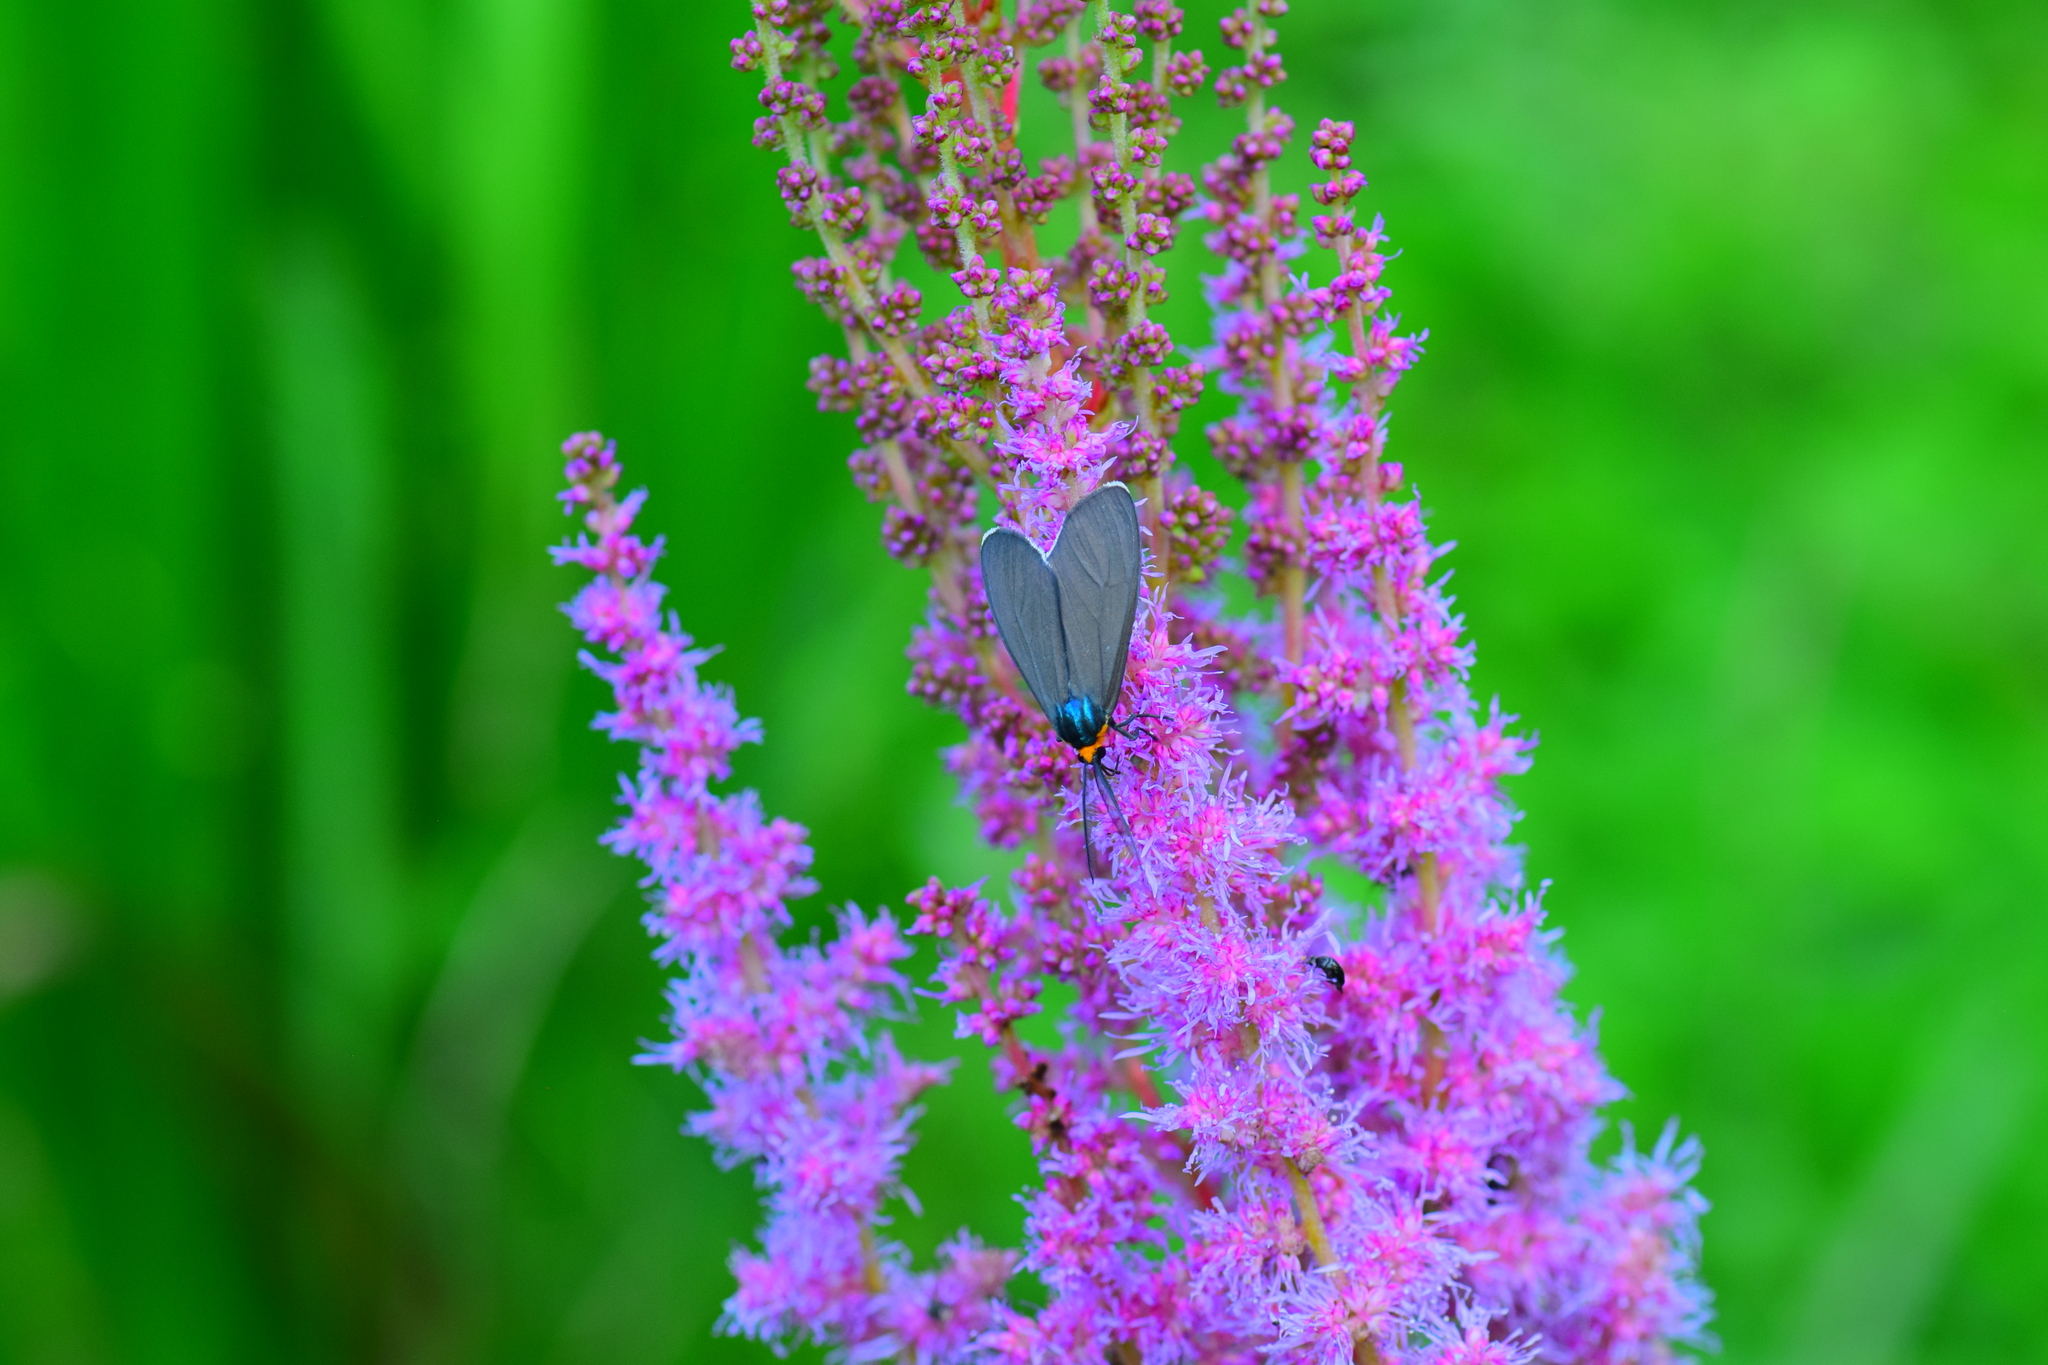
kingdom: Animalia
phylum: Arthropoda
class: Insecta
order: Lepidoptera
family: Erebidae
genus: Ctenucha
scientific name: Ctenucha virginica
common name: Virginia ctenucha moth
